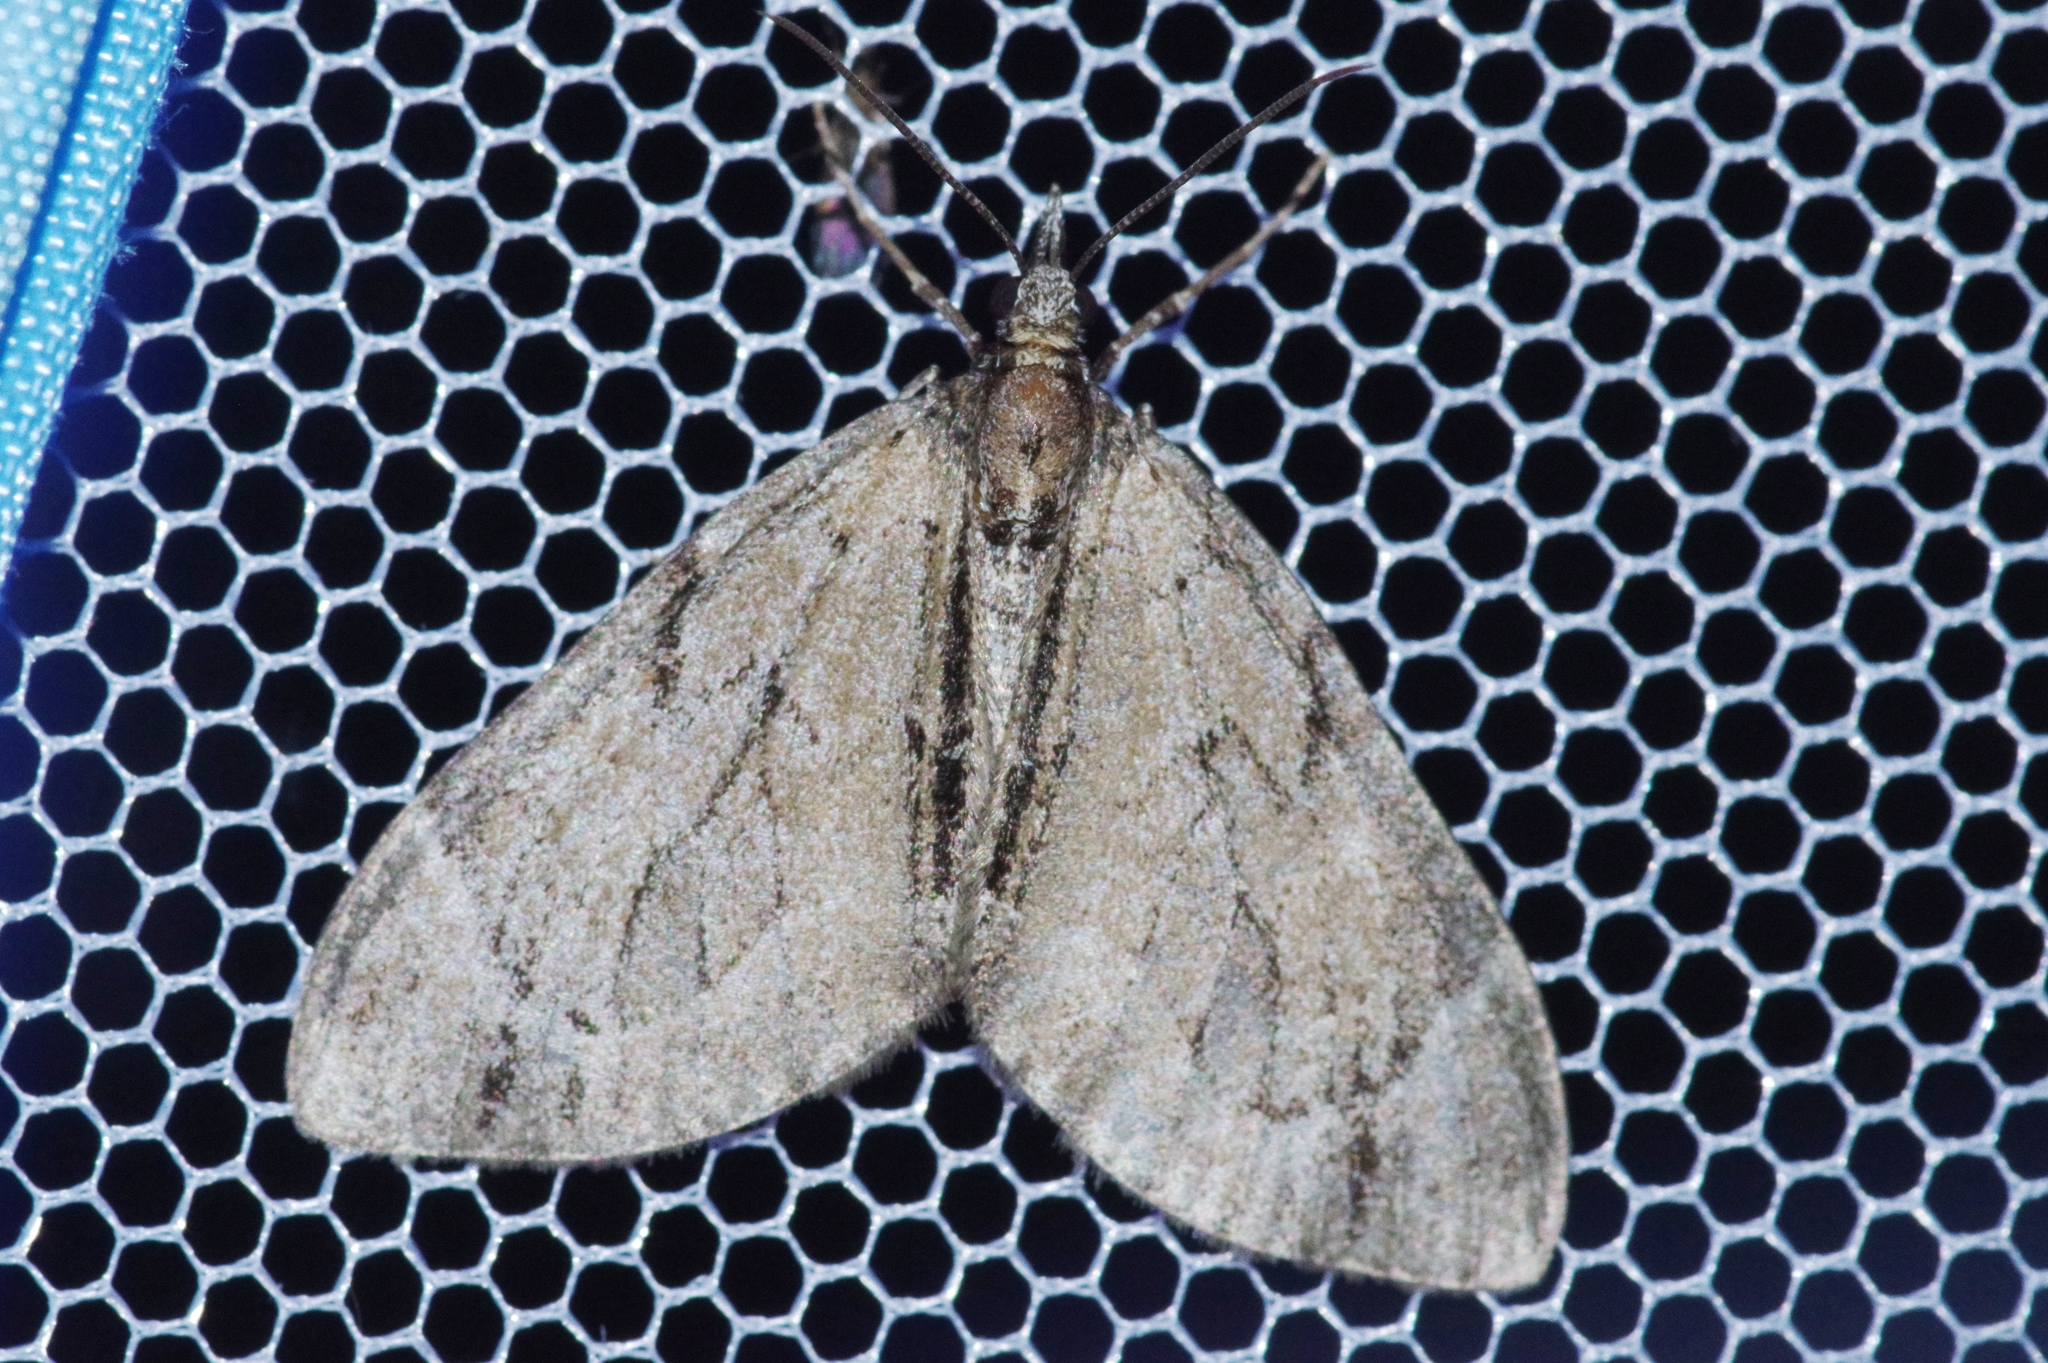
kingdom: Animalia
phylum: Arthropoda
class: Insecta
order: Lepidoptera
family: Geometridae
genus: Lobophorodes
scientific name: Lobophorodes
